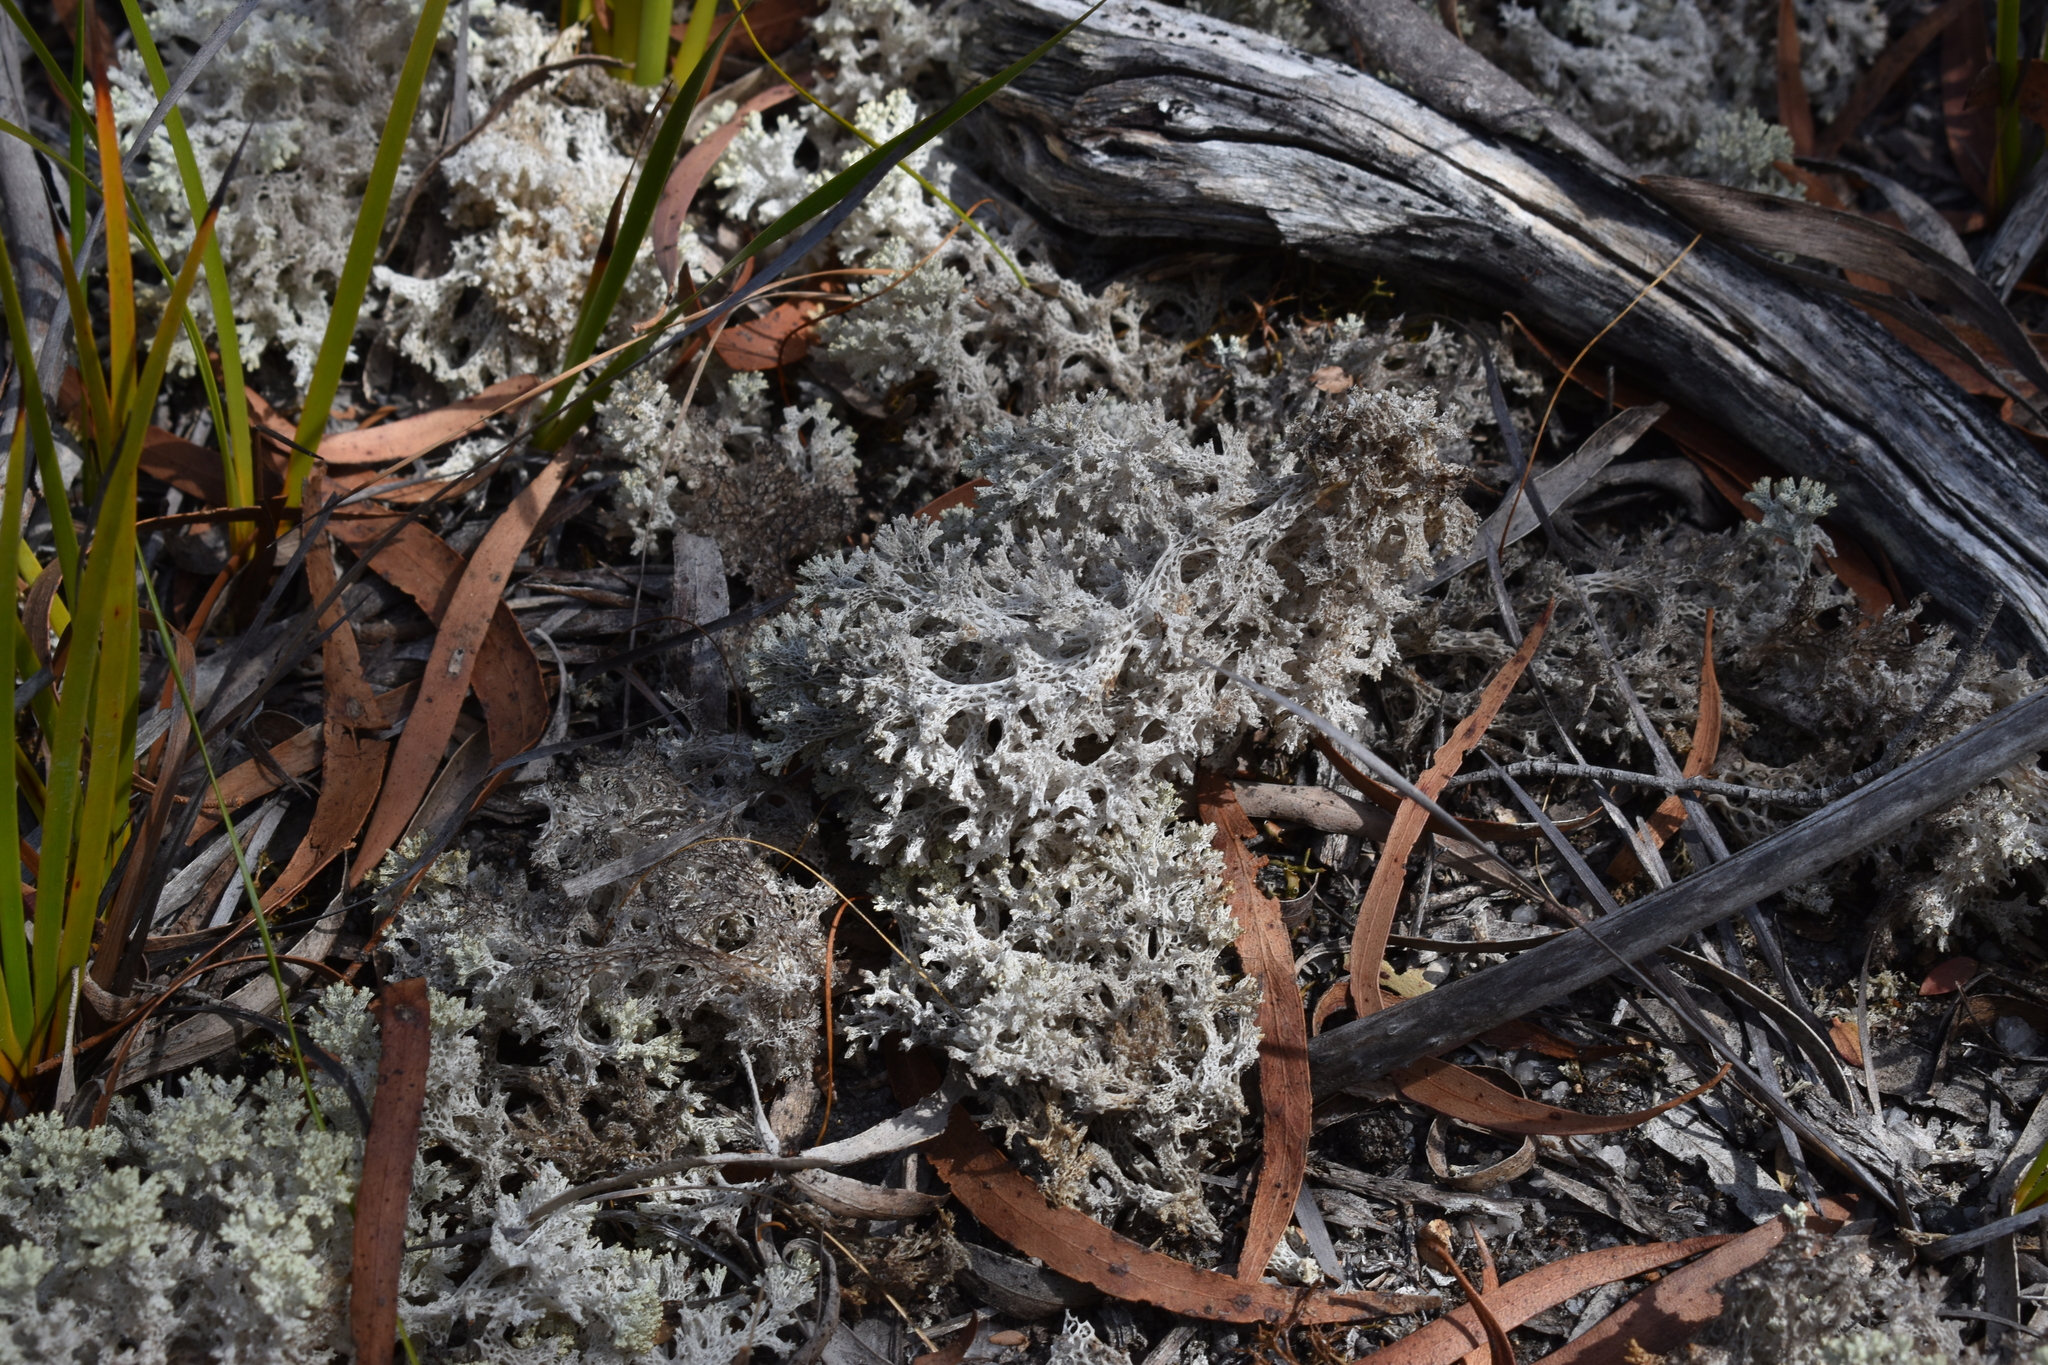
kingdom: Fungi
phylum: Ascomycota
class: Lecanoromycetes
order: Lecanorales
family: Cladoniaceae
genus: Pulchrocladia
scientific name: Pulchrocladia retipora
